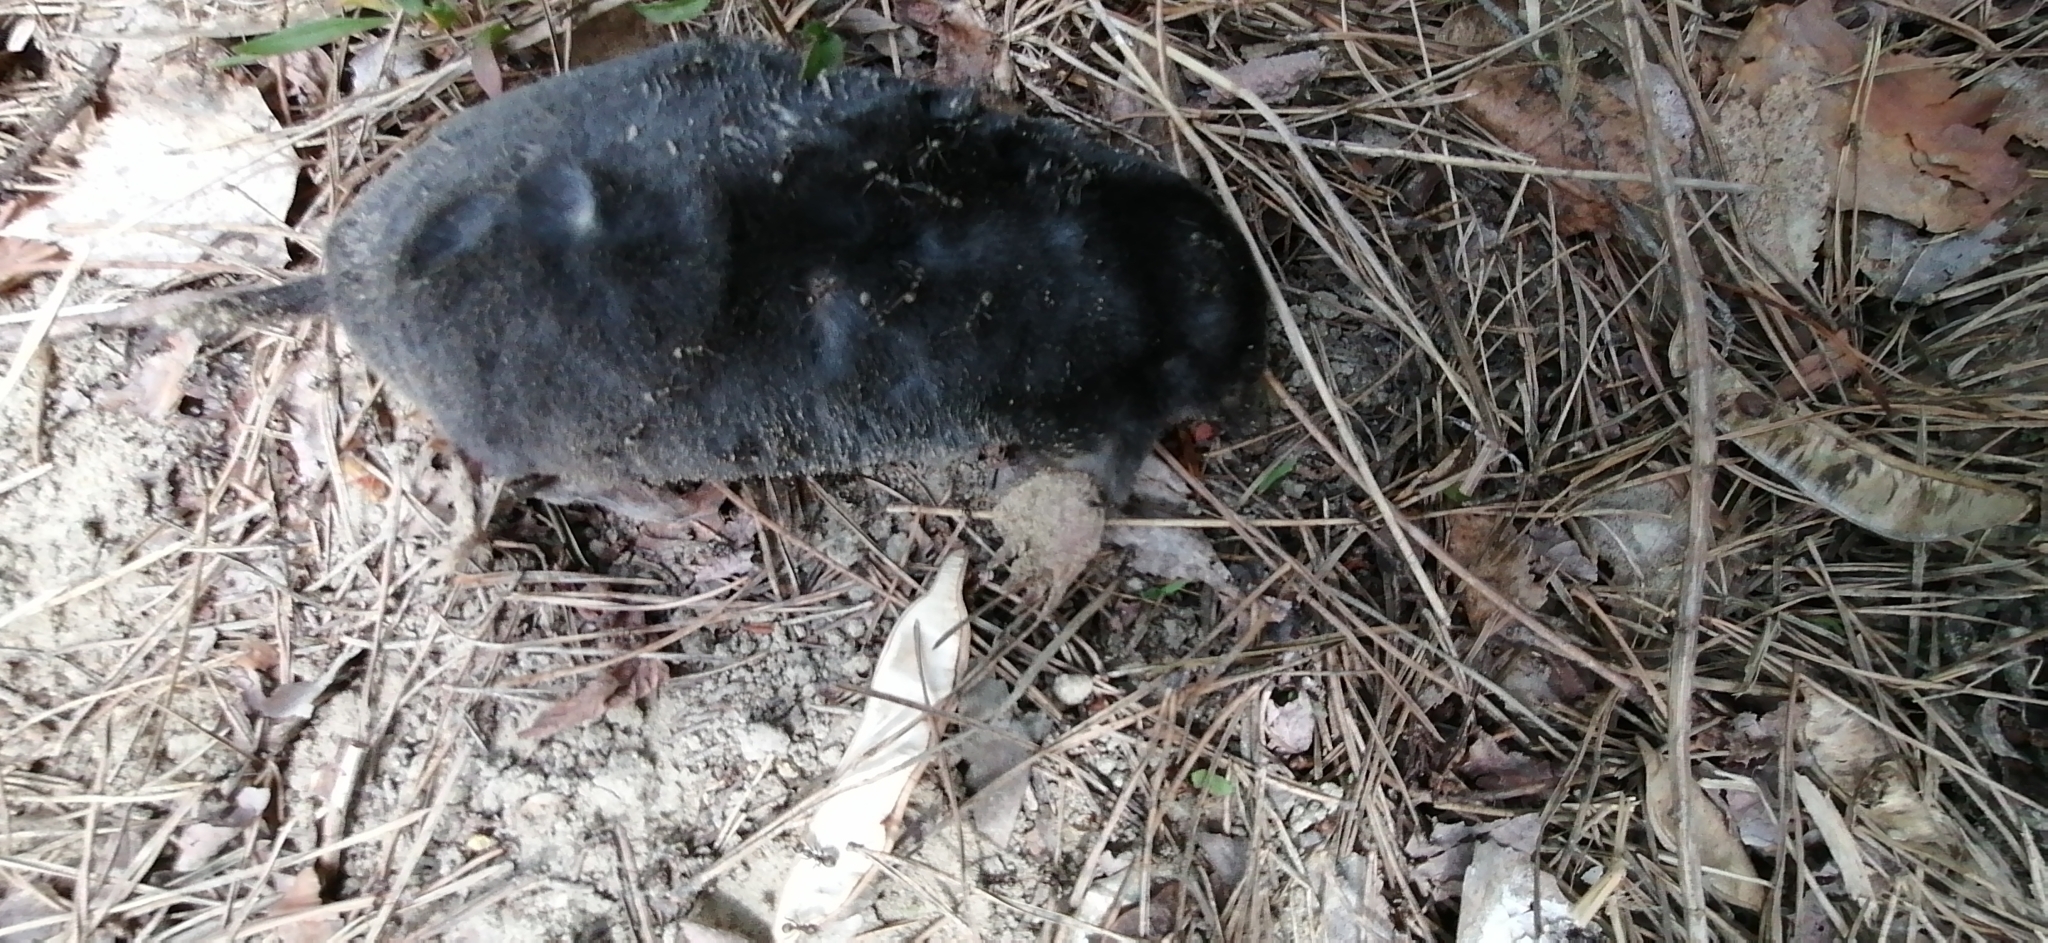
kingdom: Animalia
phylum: Chordata
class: Mammalia
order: Soricomorpha
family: Talpidae
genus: Talpa
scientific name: Talpa europaea
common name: European mole
